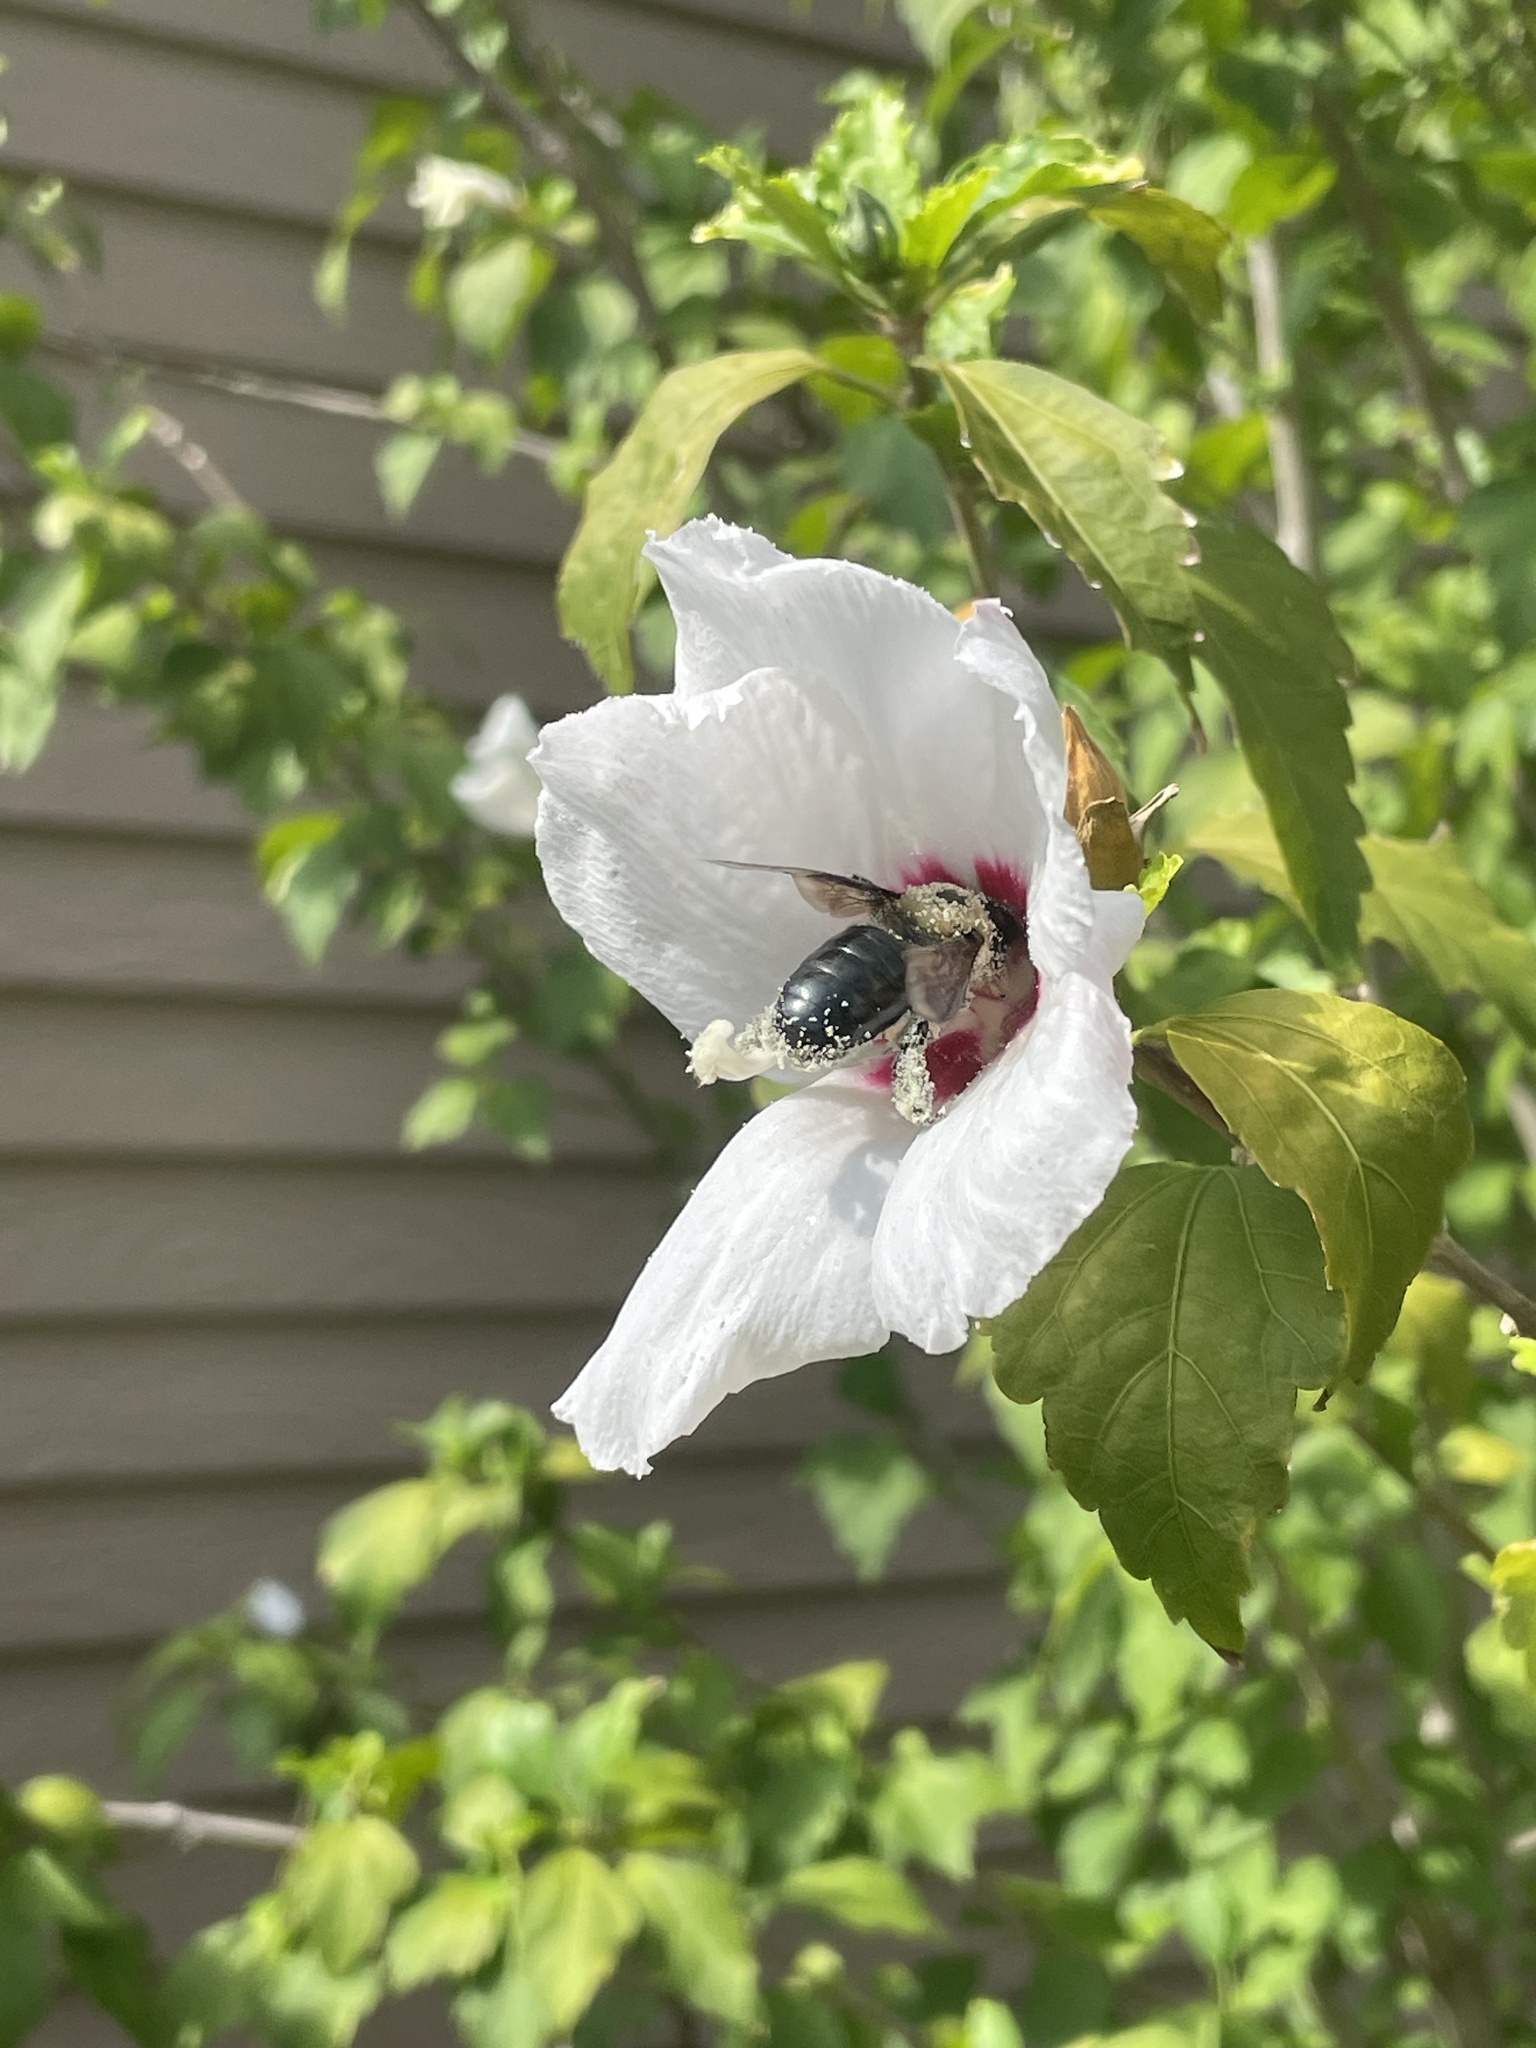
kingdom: Animalia
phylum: Arthropoda
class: Insecta
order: Hymenoptera
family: Apidae
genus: Xylocopa
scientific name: Xylocopa virginica
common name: Carpenter bee
